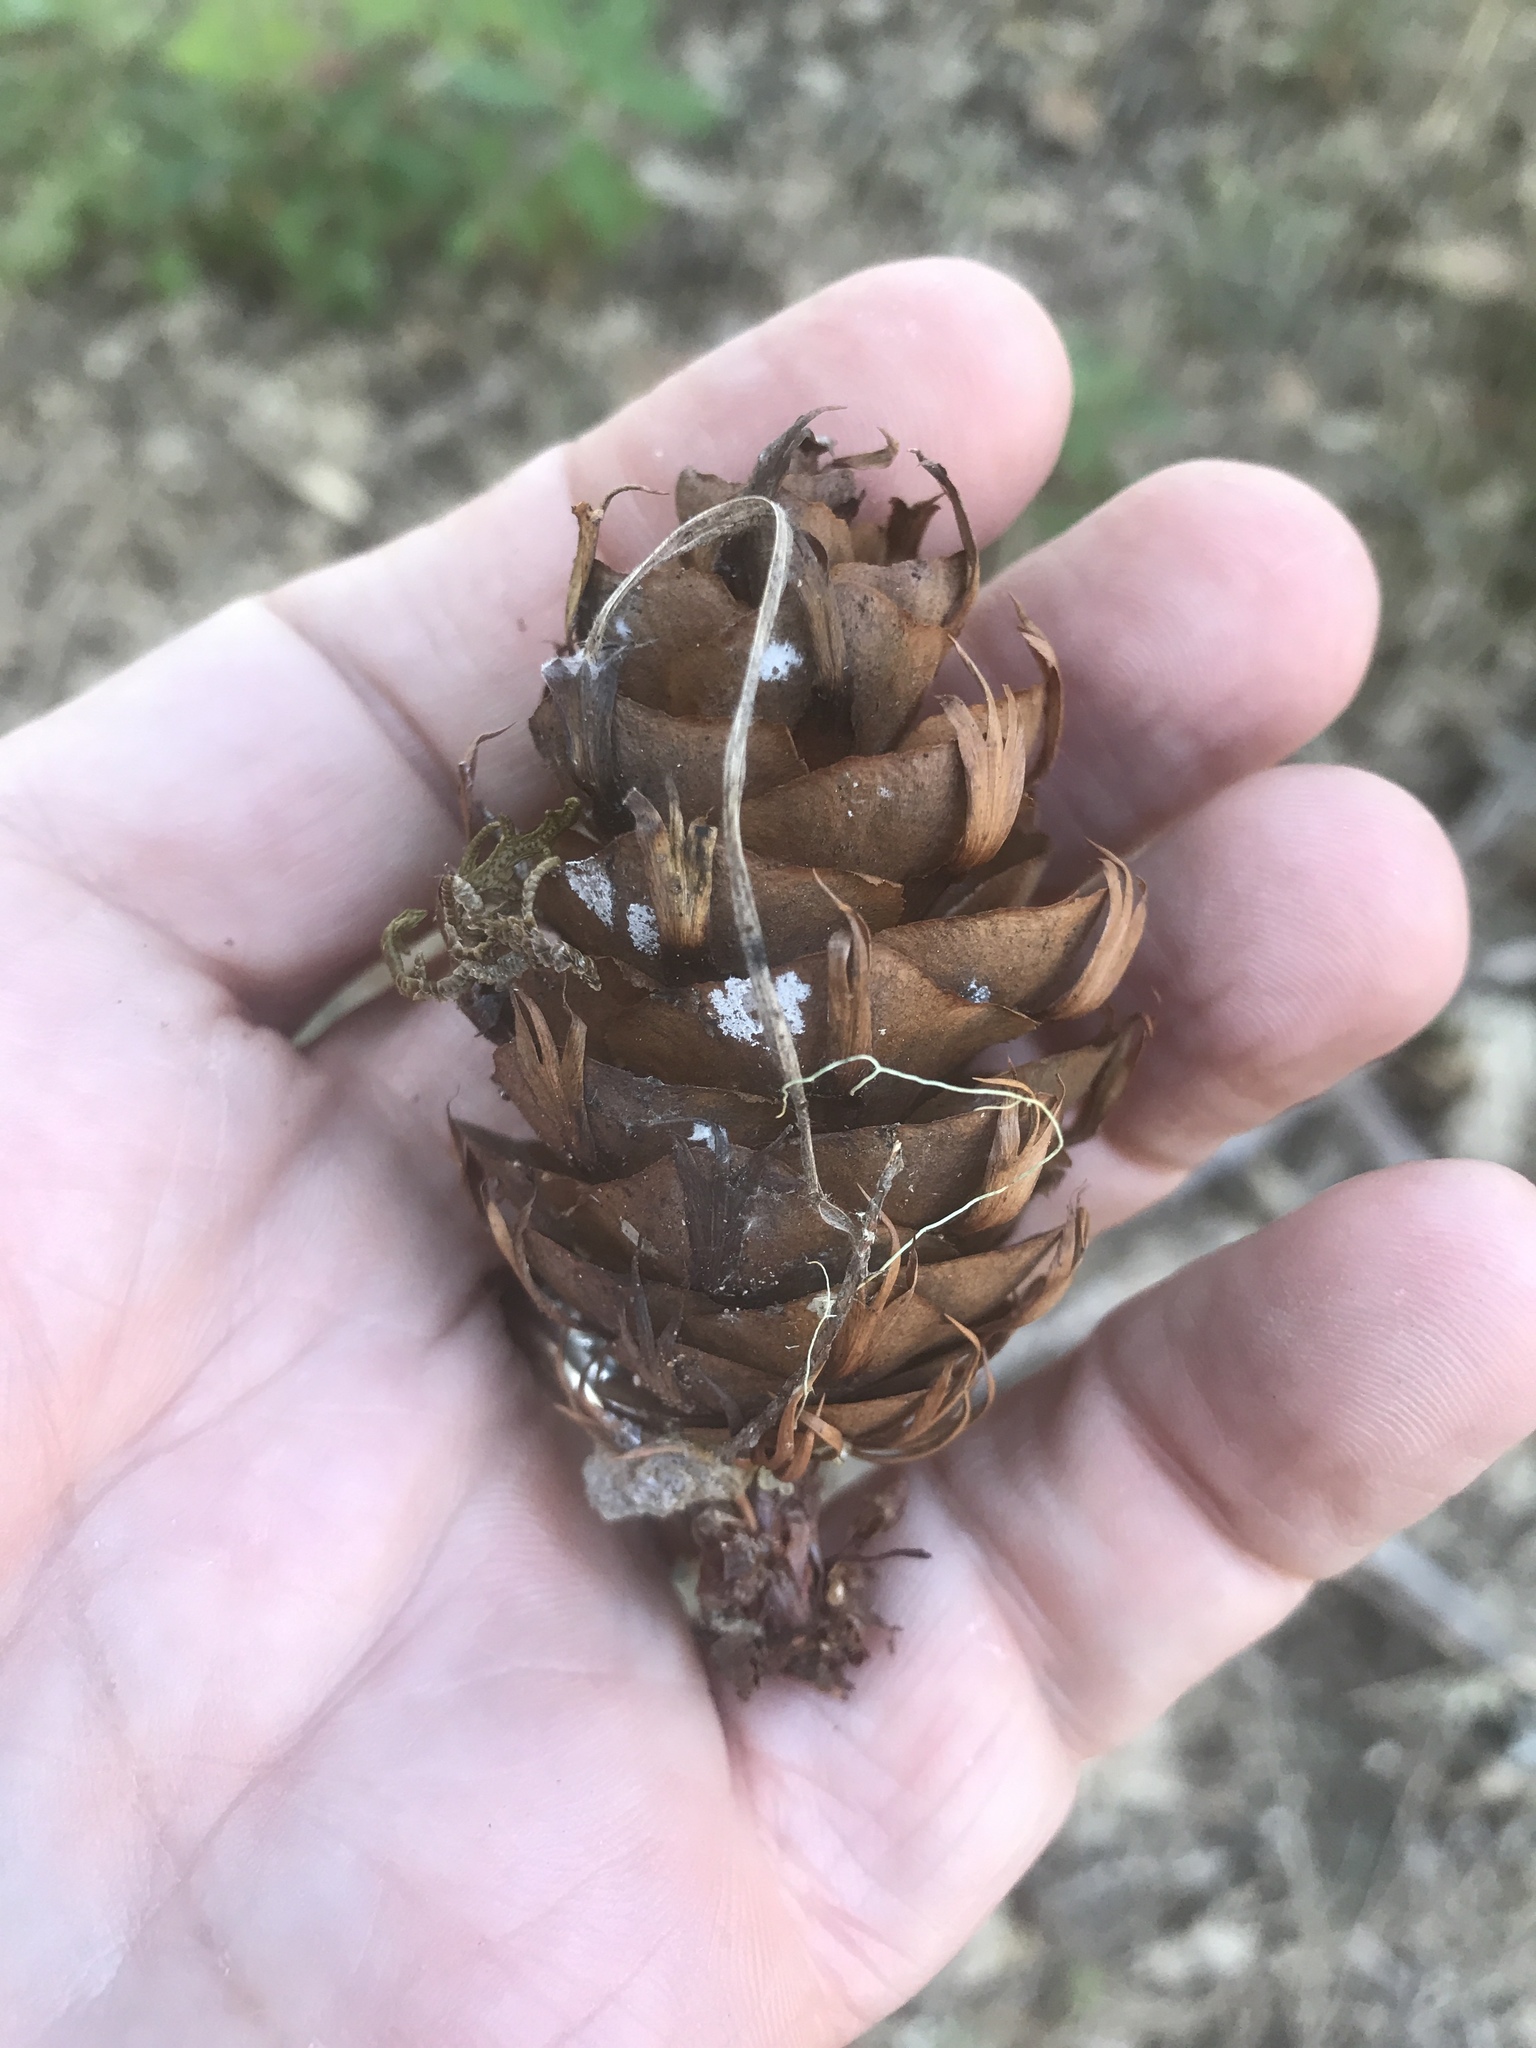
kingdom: Plantae
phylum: Tracheophyta
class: Pinopsida
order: Pinales
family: Pinaceae
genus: Pseudotsuga
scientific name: Pseudotsuga menziesii
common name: Douglas fir
